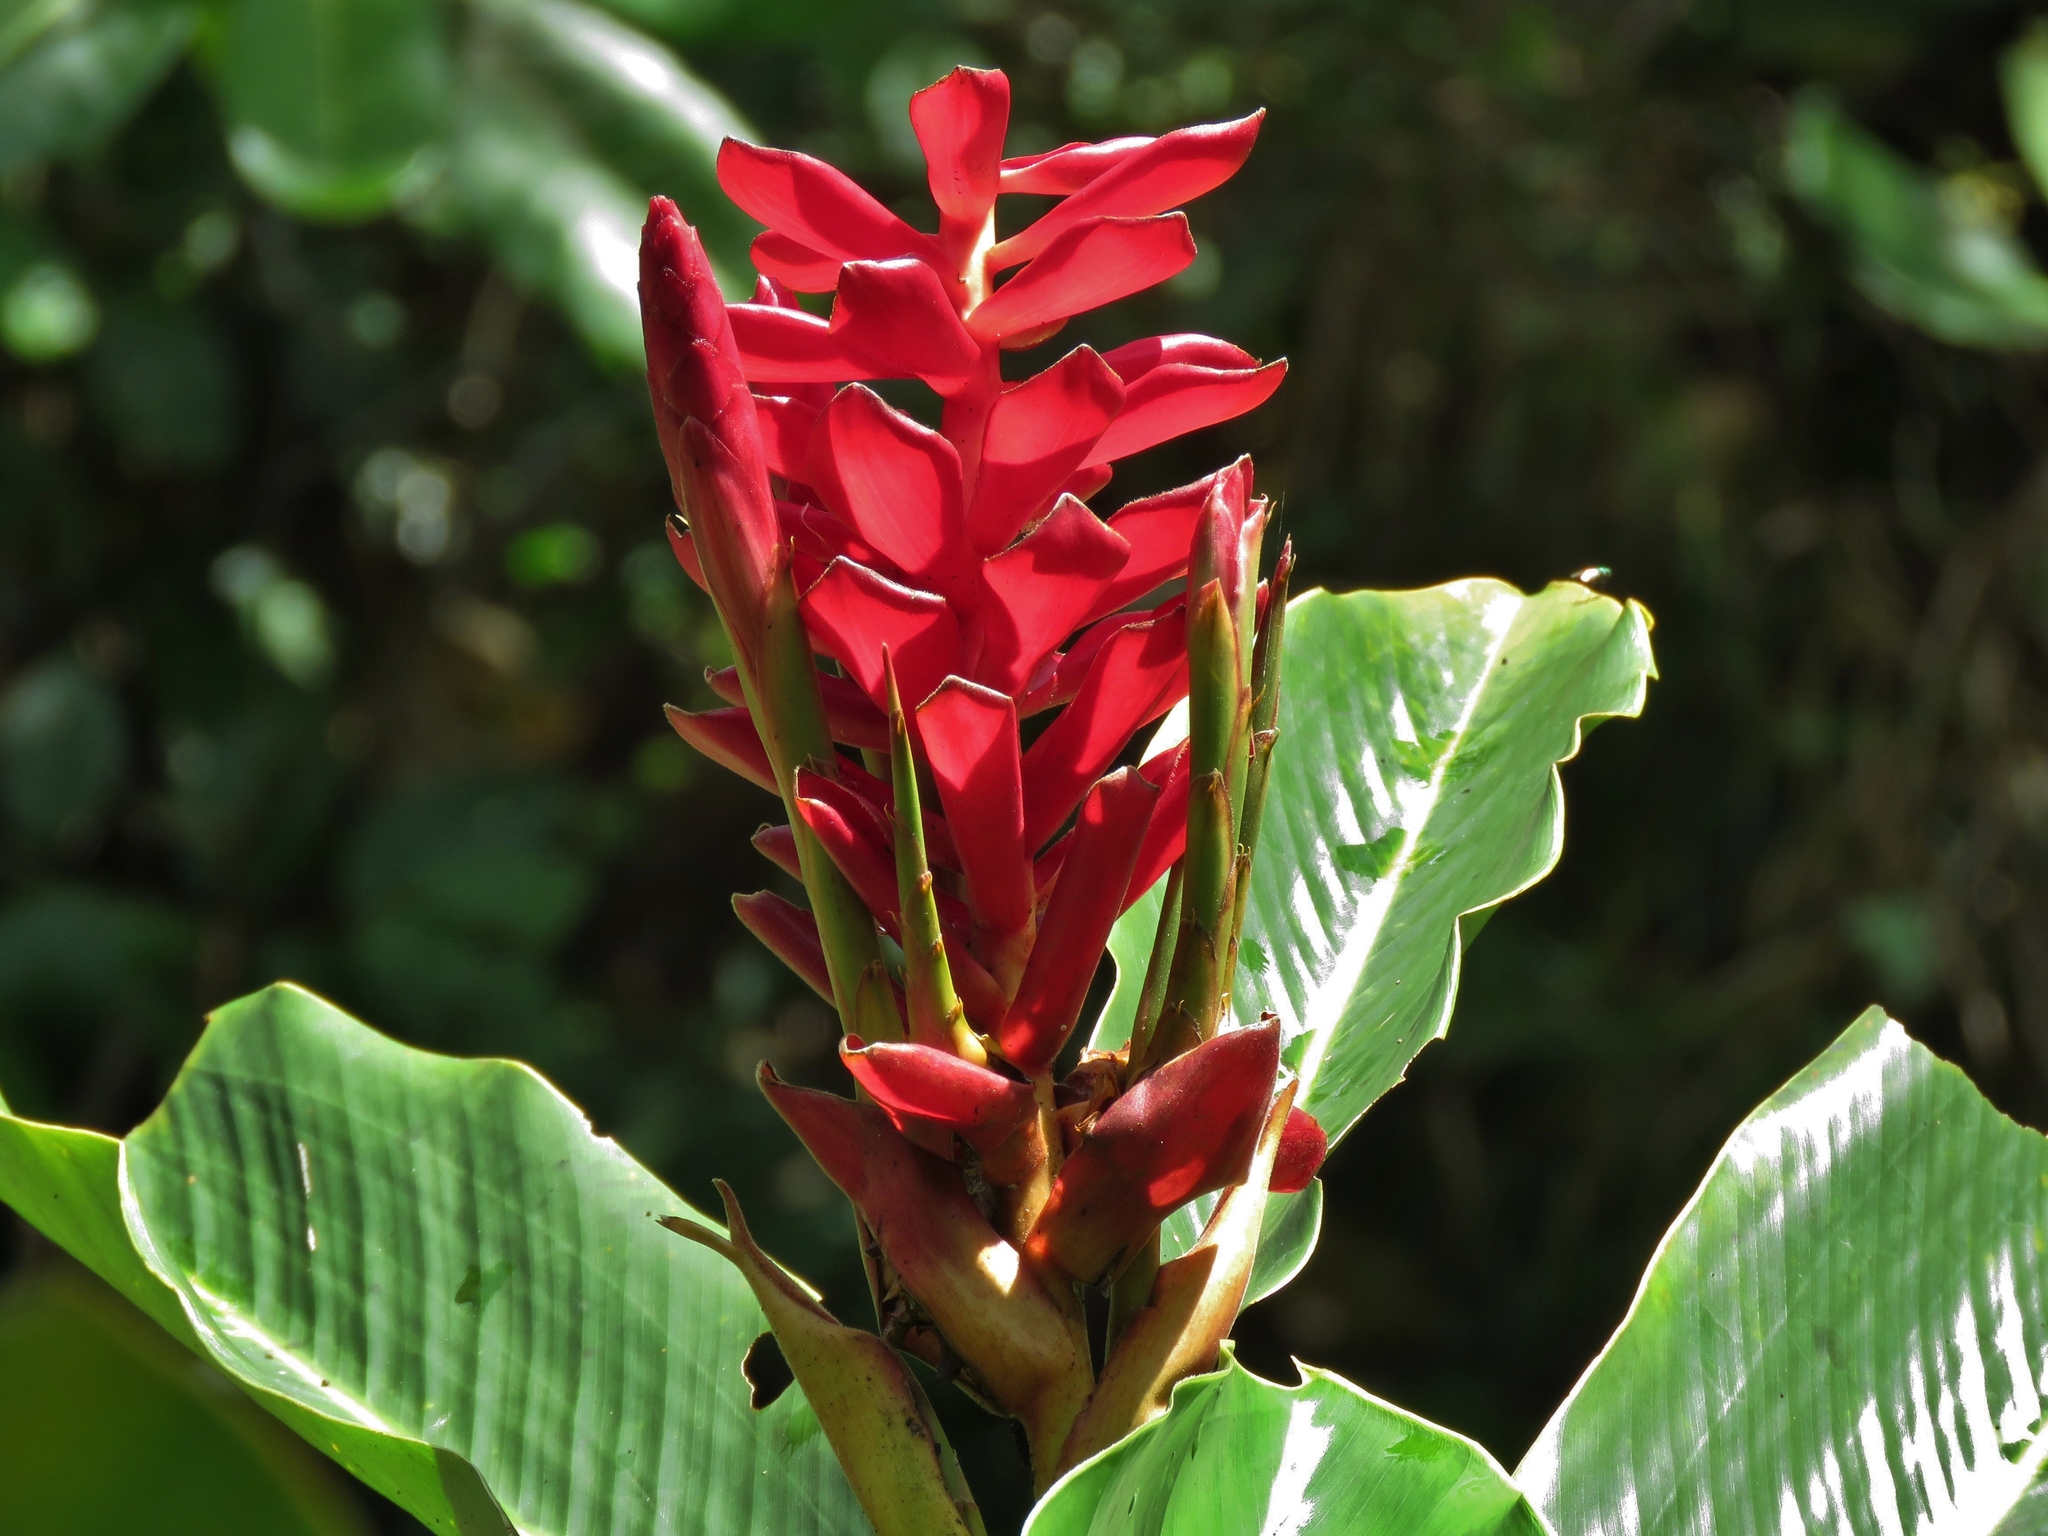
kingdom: Plantae
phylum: Tracheophyta
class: Liliopsida
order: Zingiberales
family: Zingiberaceae
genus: Alpinia
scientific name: Alpinia purpurata
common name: Red ginger
